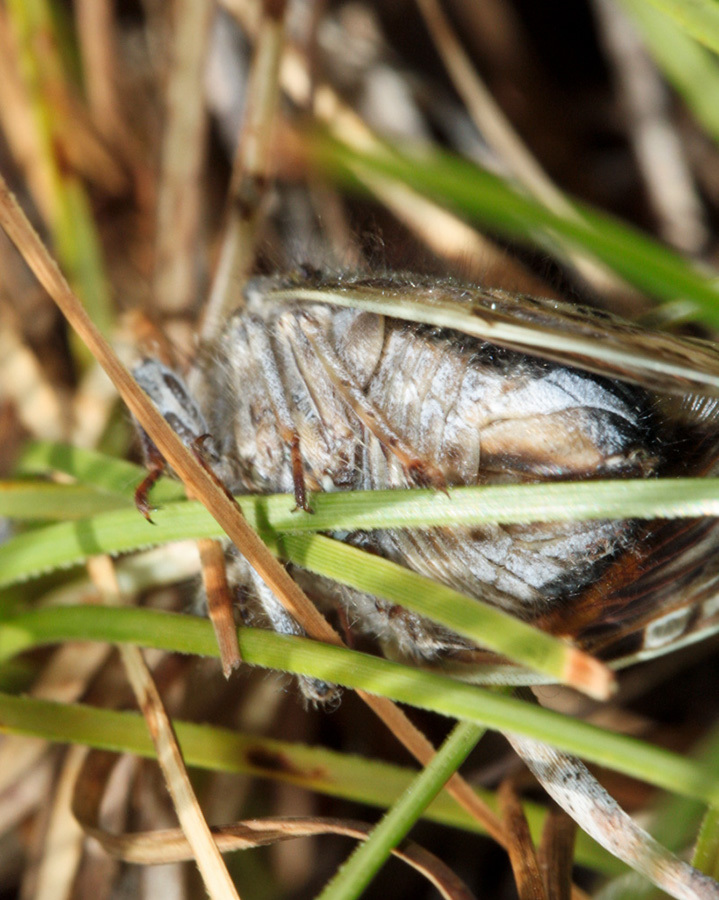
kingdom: Animalia
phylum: Arthropoda
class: Insecta
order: Hemiptera
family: Cicadidae
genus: Platypleura
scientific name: Platypleura capensis
